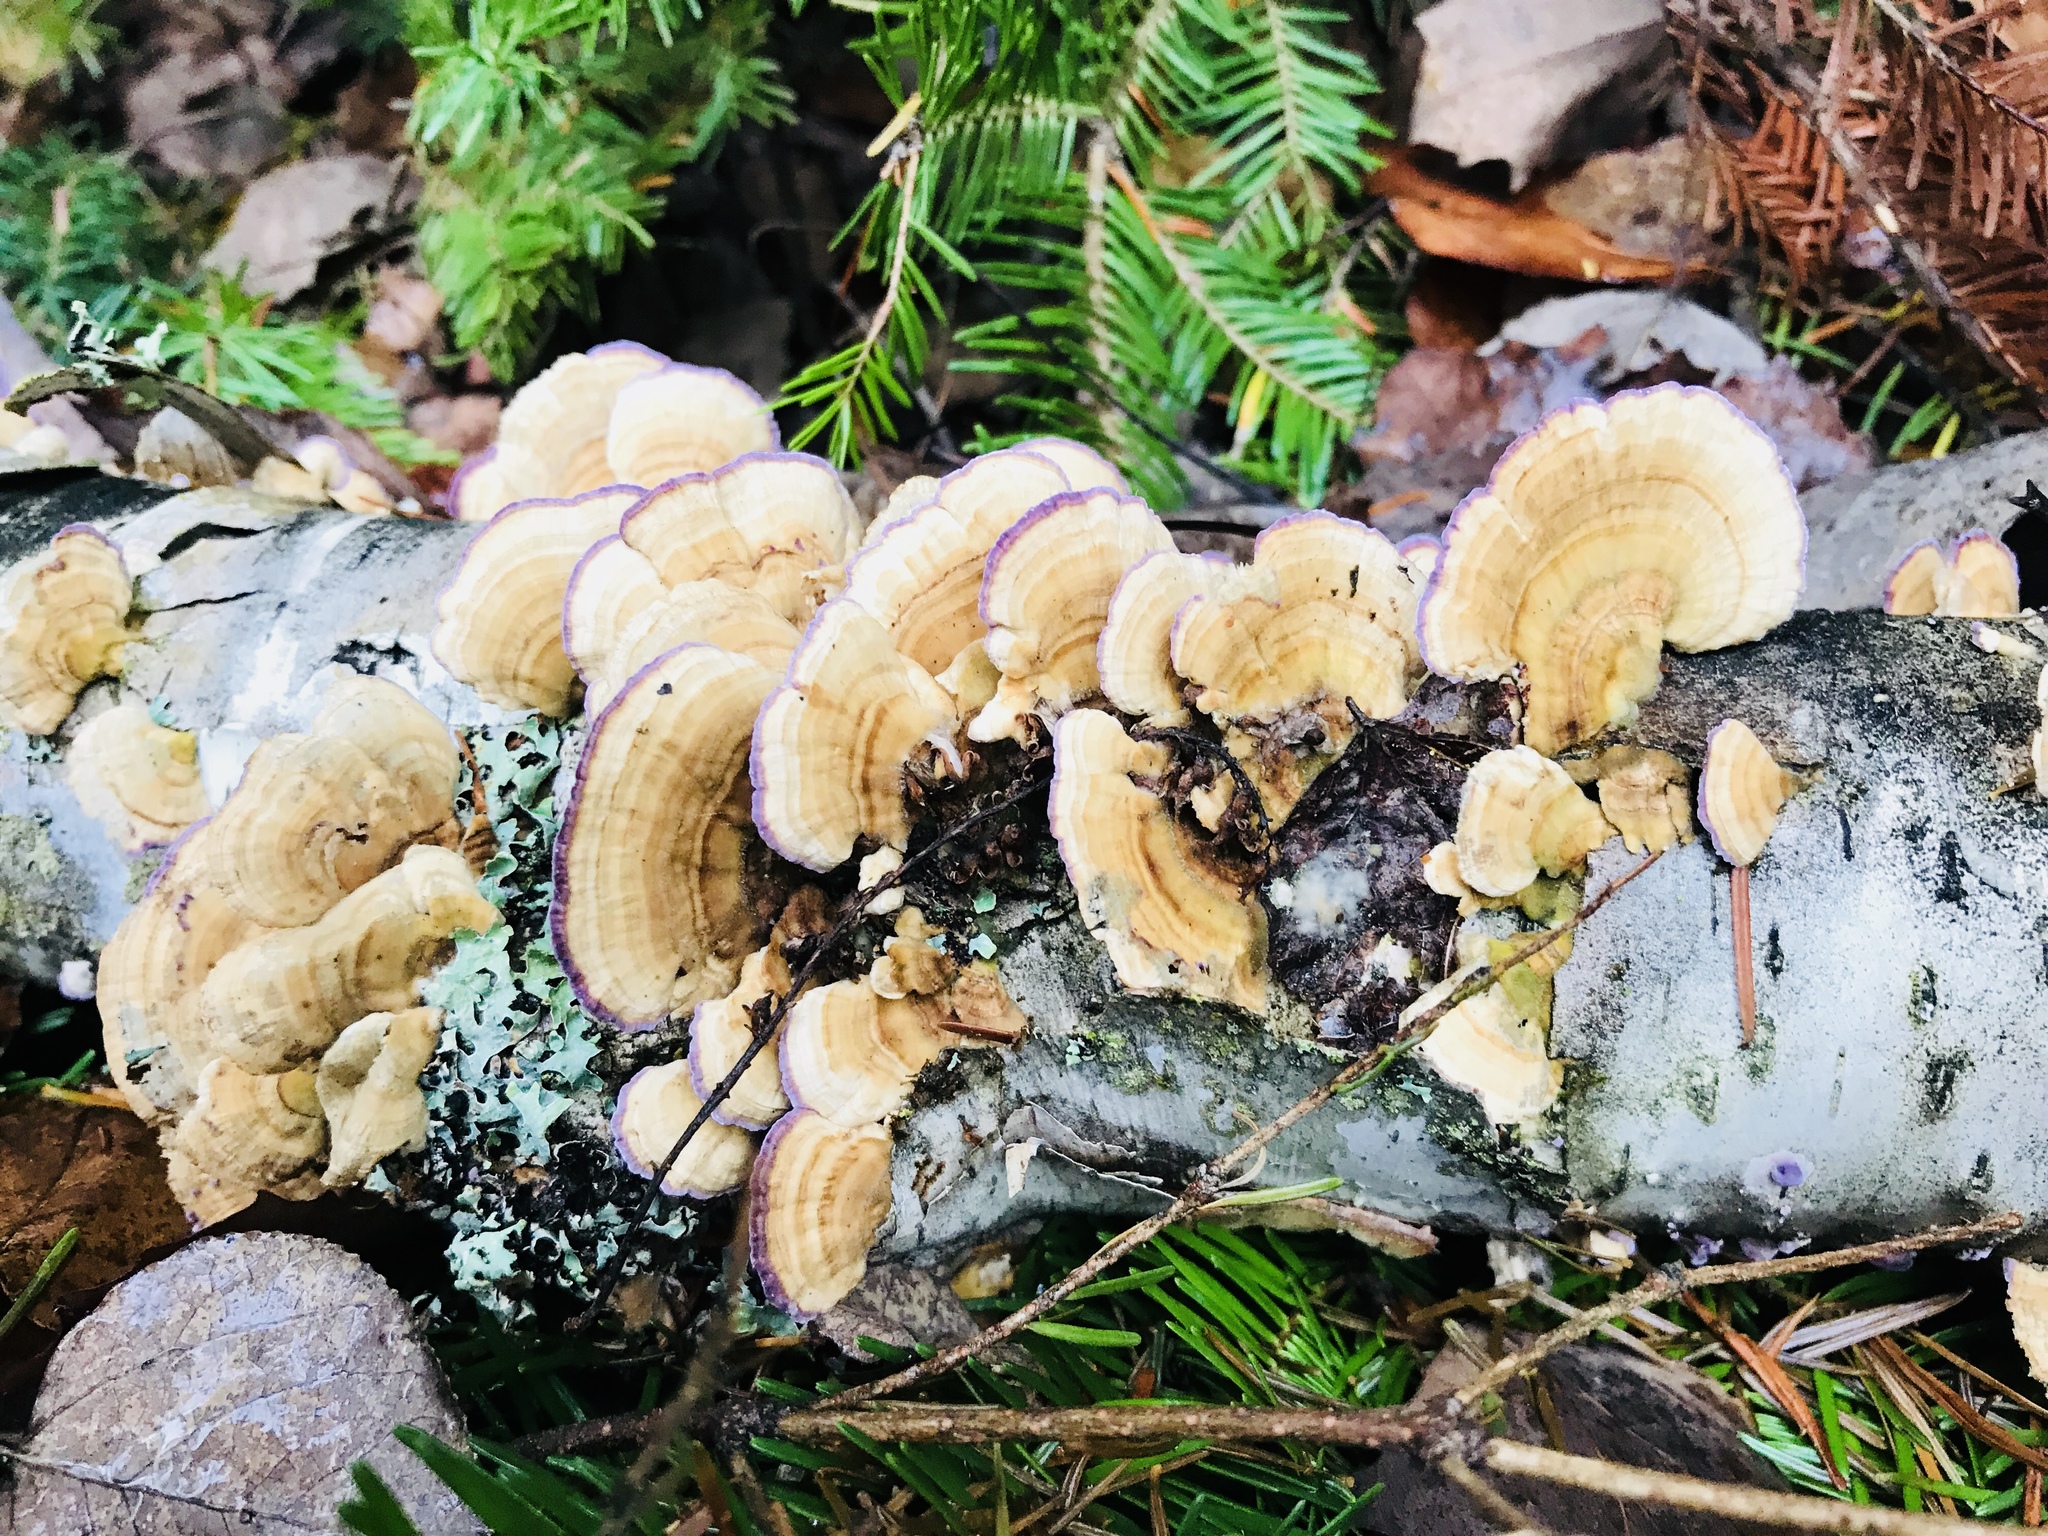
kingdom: Fungi
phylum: Basidiomycota
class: Agaricomycetes
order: Hymenochaetales
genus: Trichaptum
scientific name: Trichaptum biforme
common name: Violet-toothed polypore
